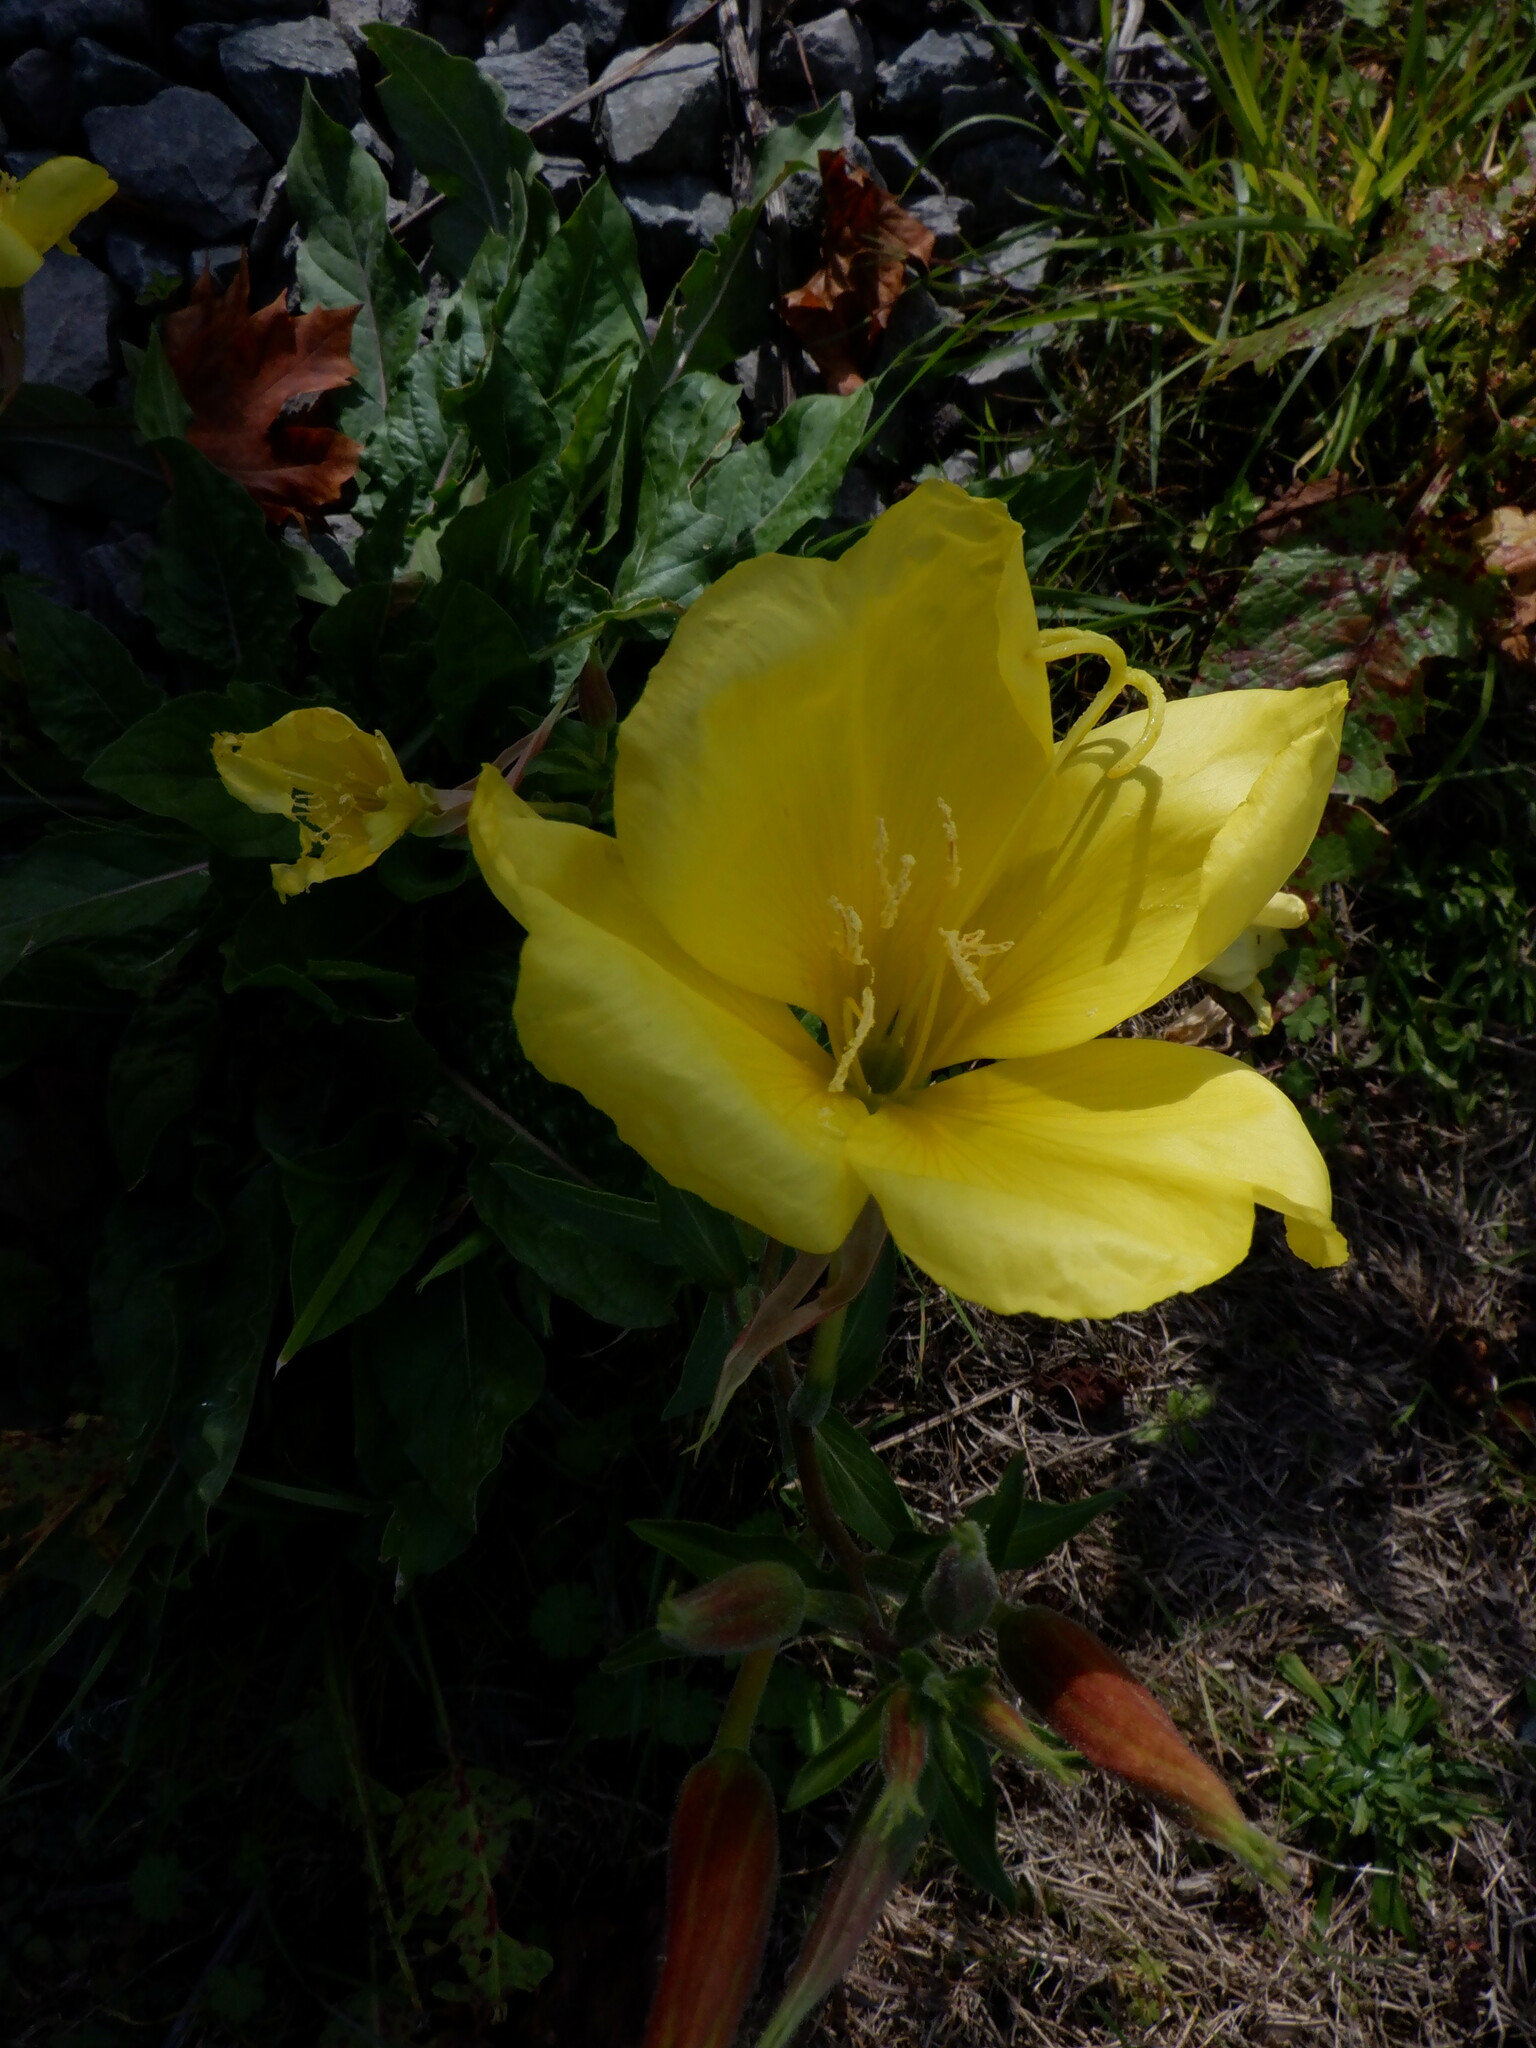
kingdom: Plantae
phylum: Tracheophyta
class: Magnoliopsida
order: Myrtales
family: Onagraceae
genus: Oenothera
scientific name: Oenothera glazioviana
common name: Large-flowered evening-primrose
